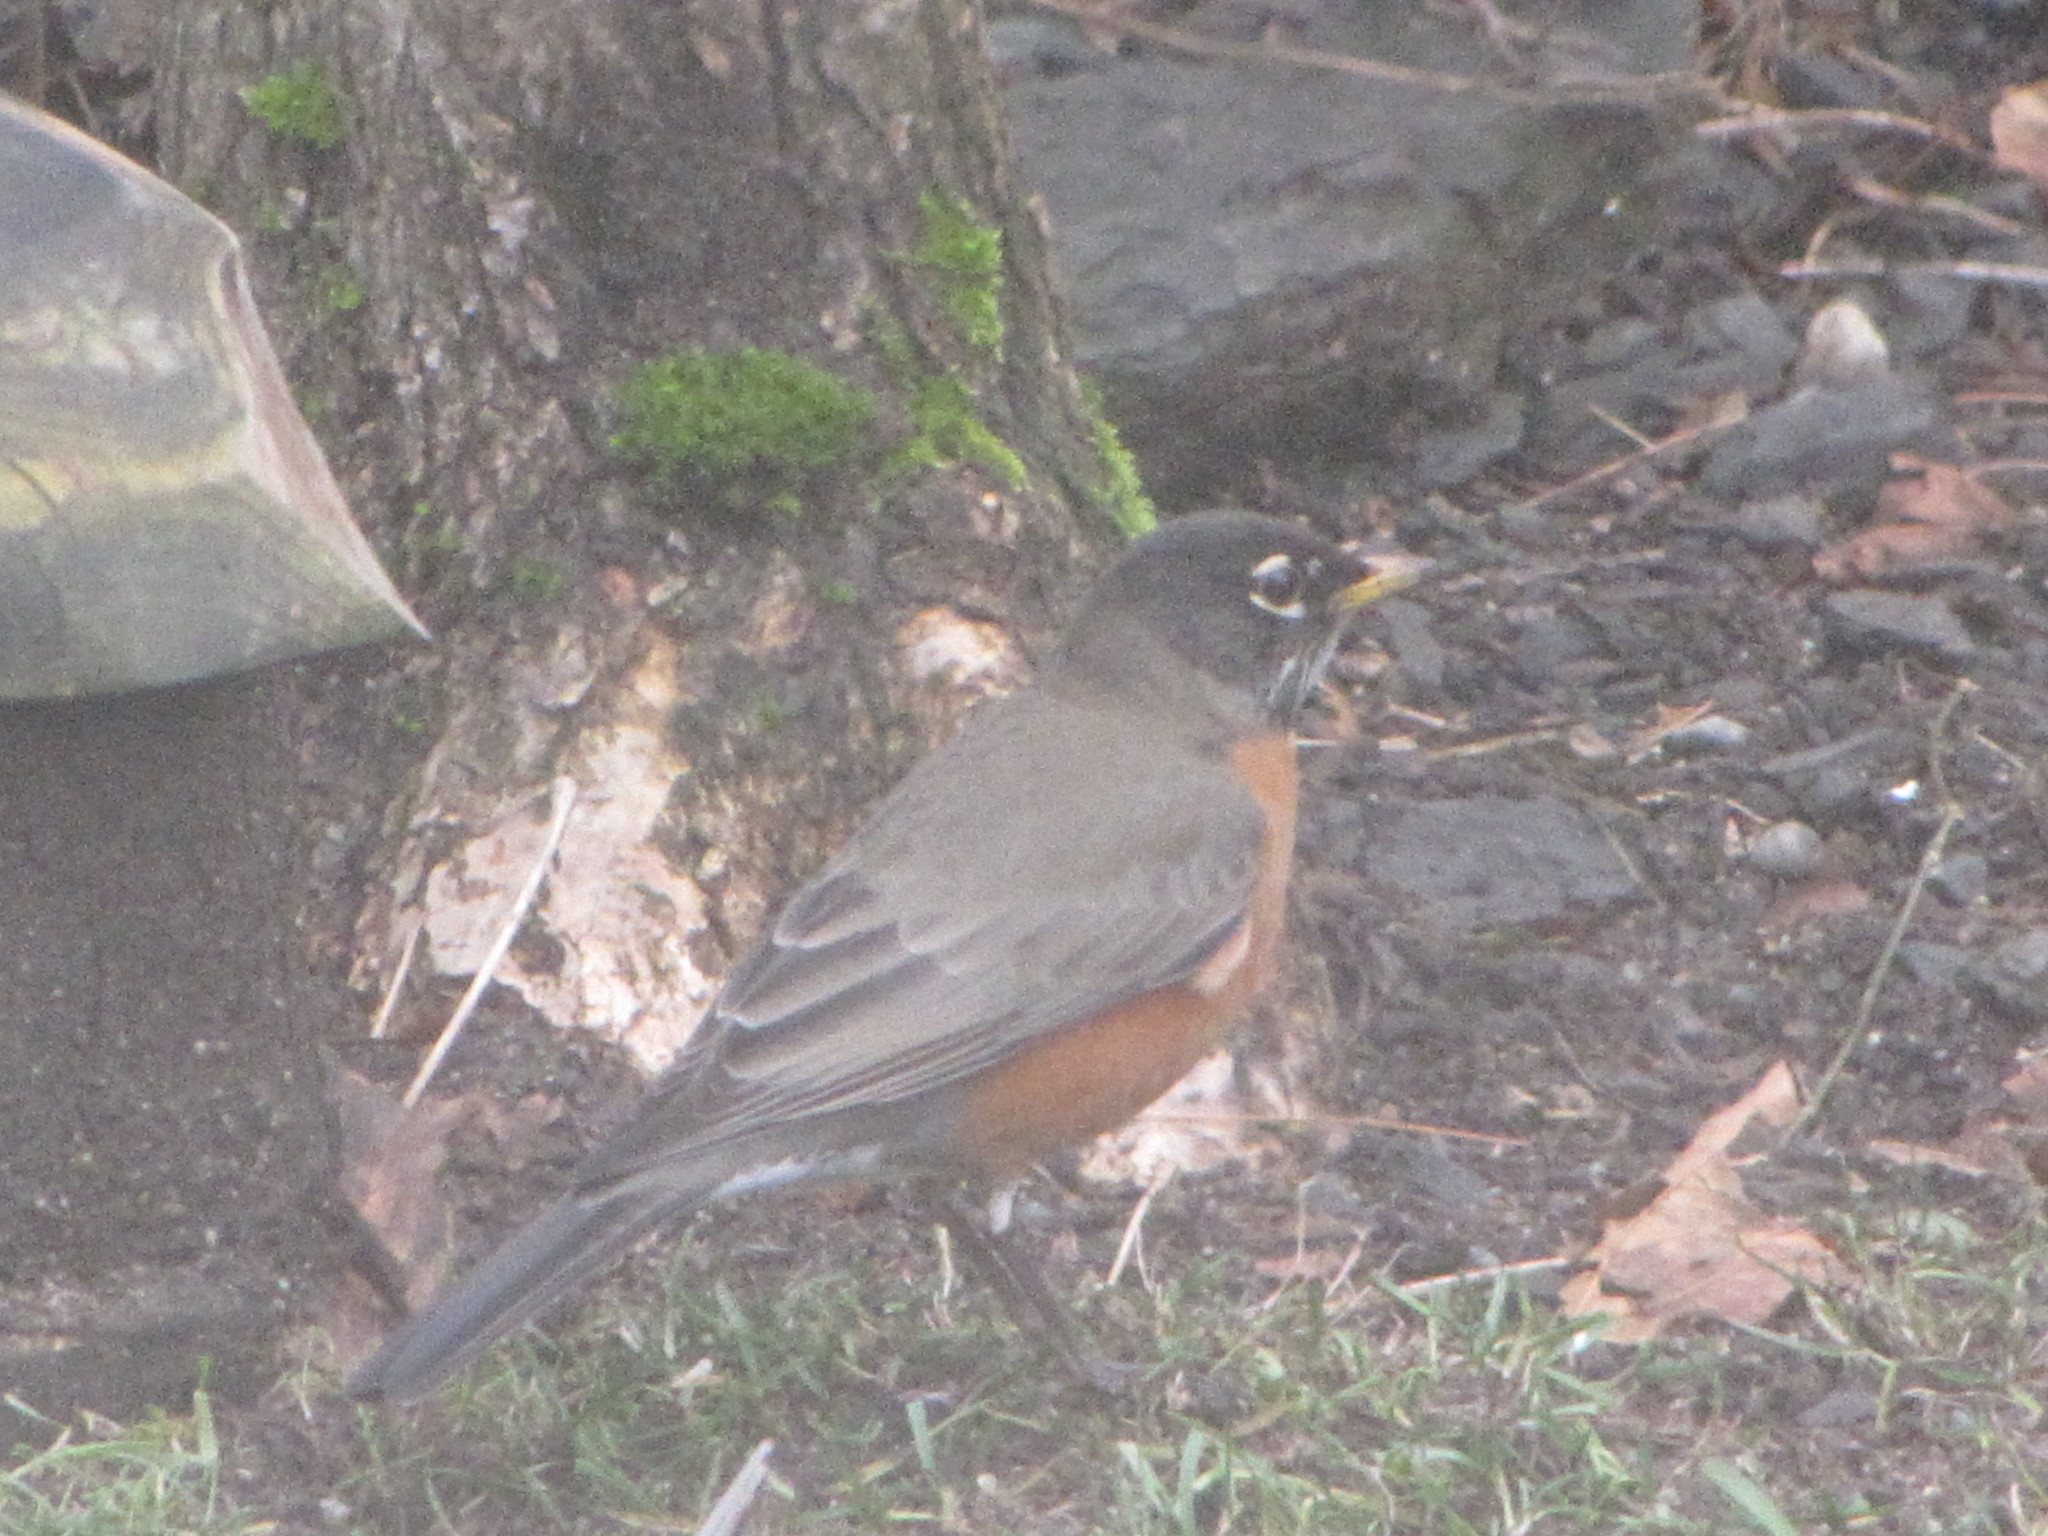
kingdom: Animalia
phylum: Chordata
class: Aves
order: Passeriformes
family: Turdidae
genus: Turdus
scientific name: Turdus migratorius
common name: American robin
